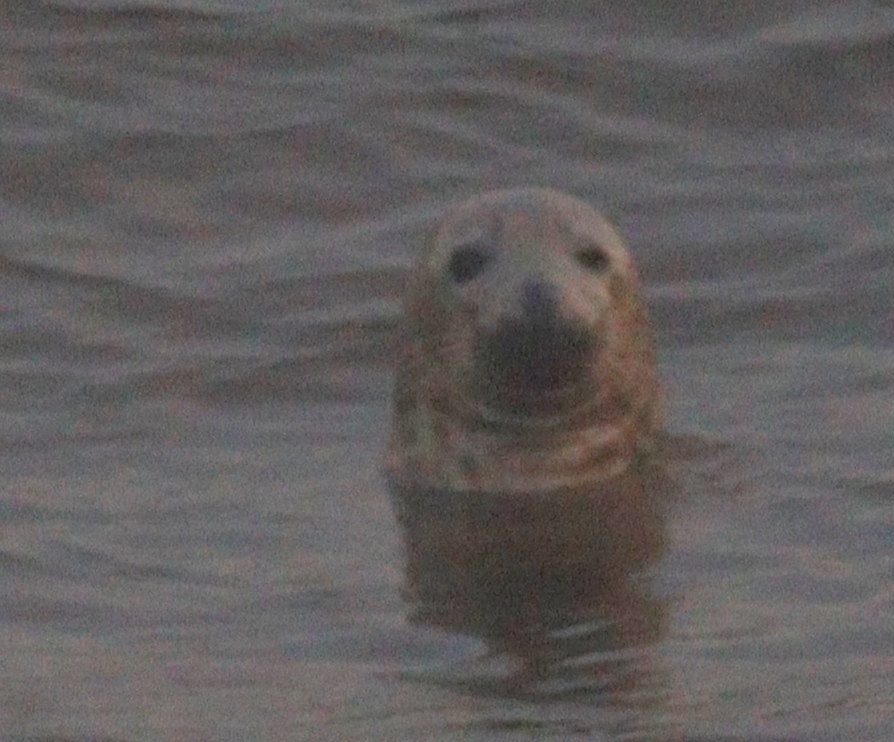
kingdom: Animalia
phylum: Chordata
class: Mammalia
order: Carnivora
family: Phocidae
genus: Halichoerus
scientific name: Halichoerus grypus
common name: Grey seal
